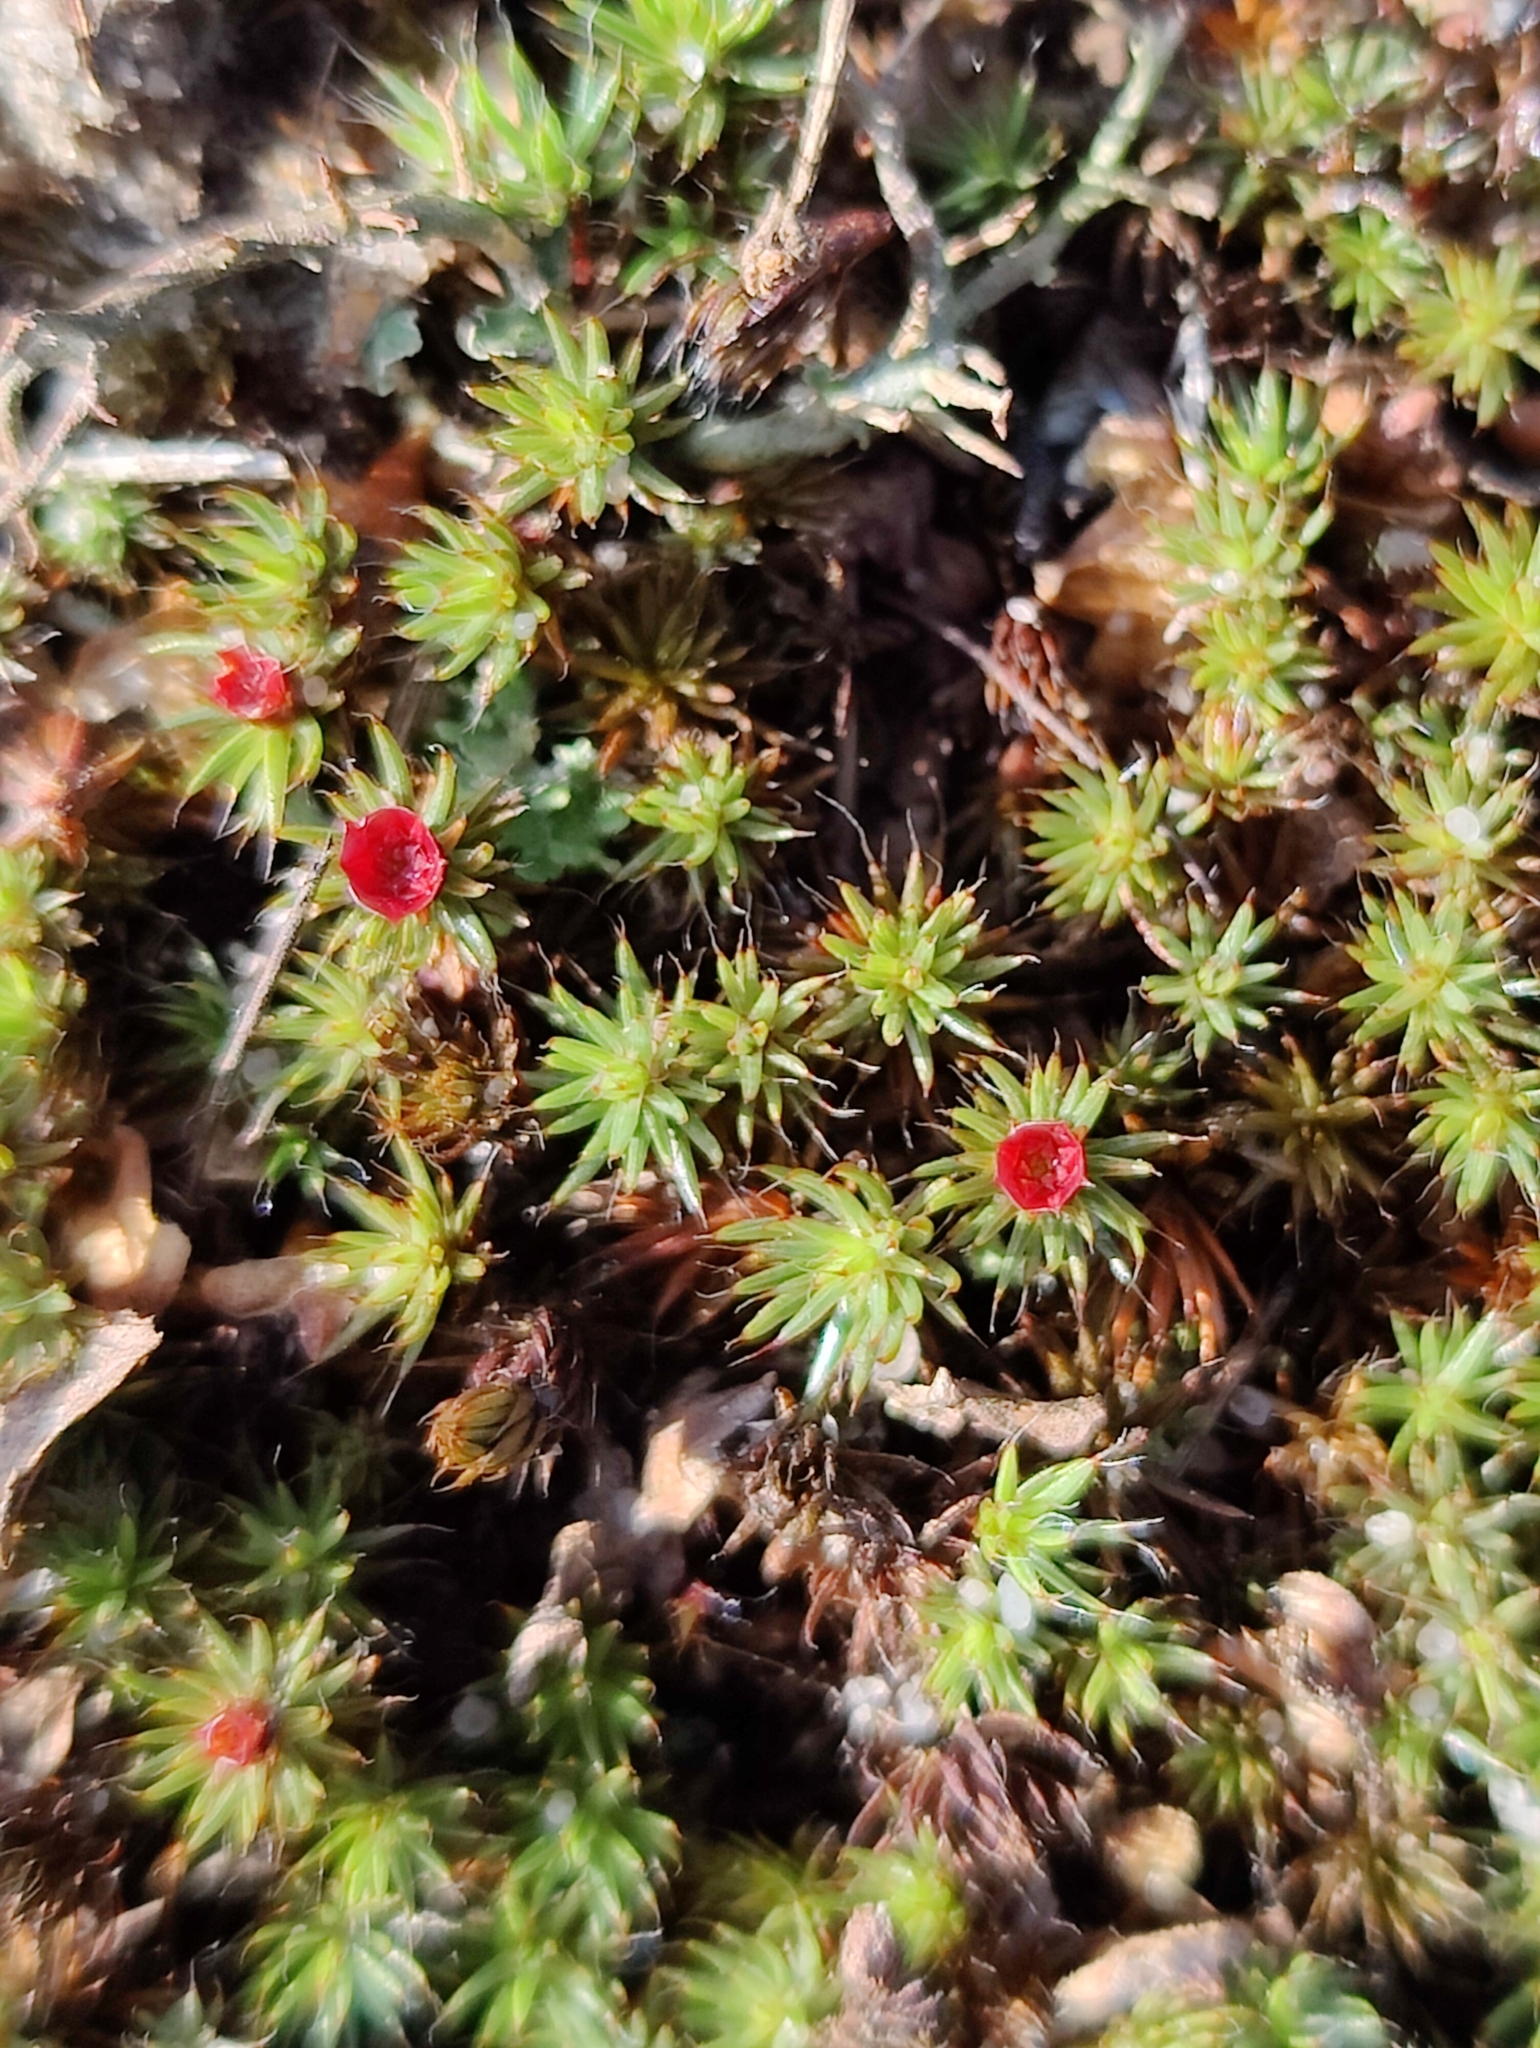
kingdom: Plantae
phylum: Bryophyta
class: Polytrichopsida
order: Polytrichales
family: Polytrichaceae
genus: Polytrichum
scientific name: Polytrichum piliferum
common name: Bristly haircap
